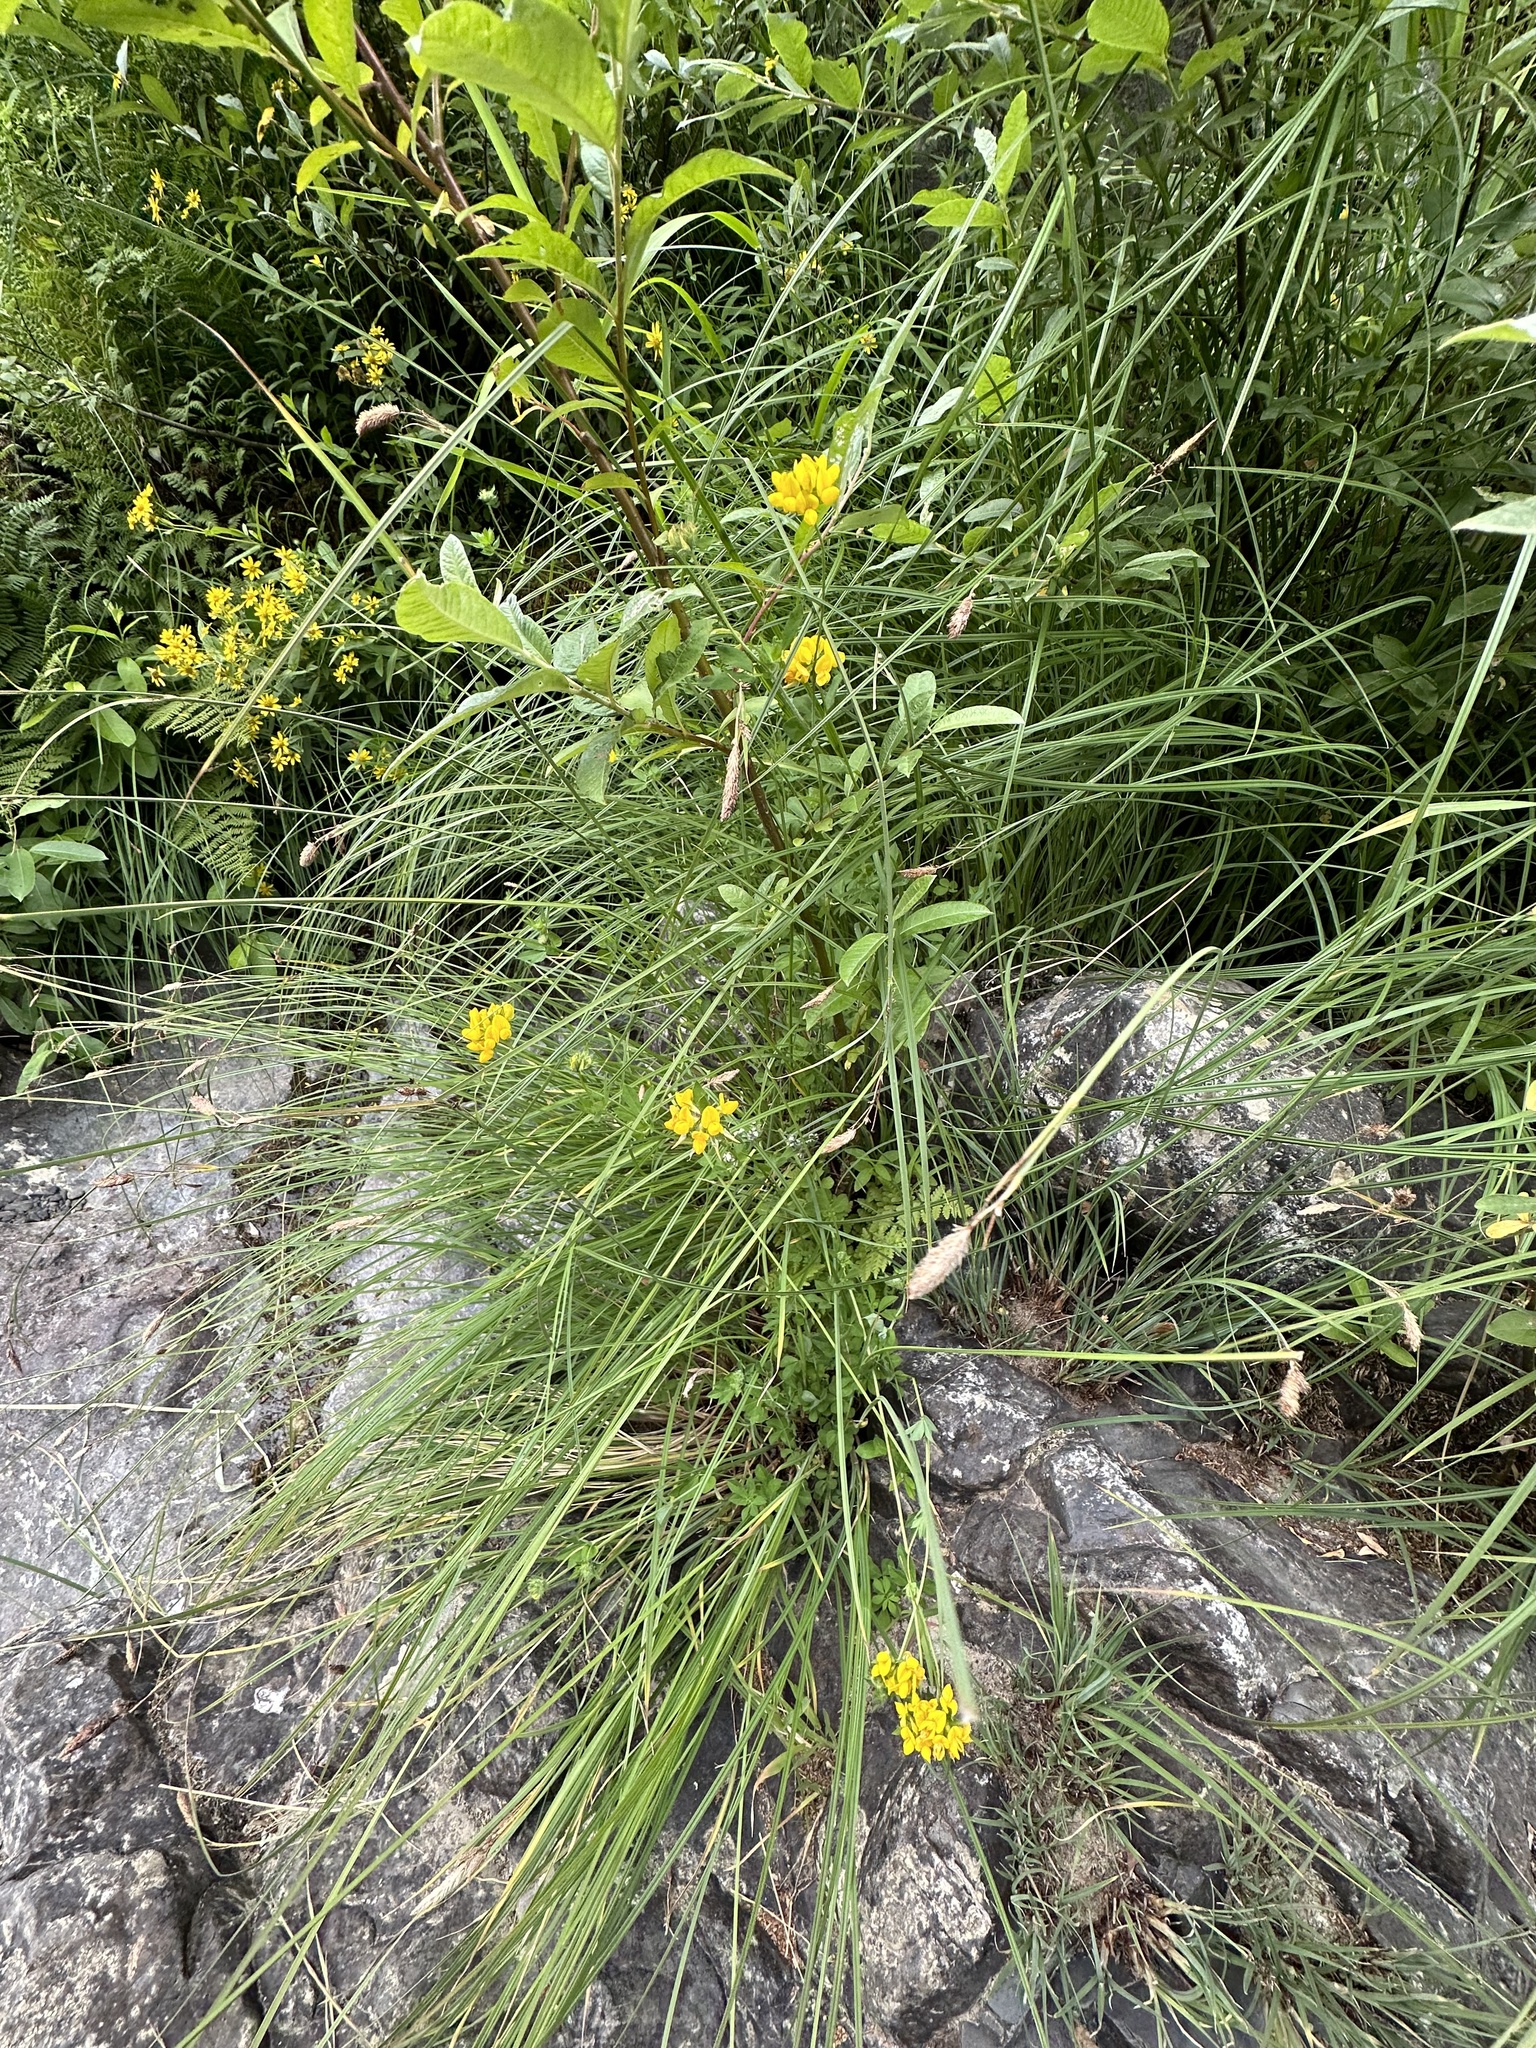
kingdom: Plantae
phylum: Tracheophyta
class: Magnoliopsida
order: Fabales
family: Fabaceae
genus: Lotus
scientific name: Lotus pedunculatus
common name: Greater birdsfoot-trefoil
